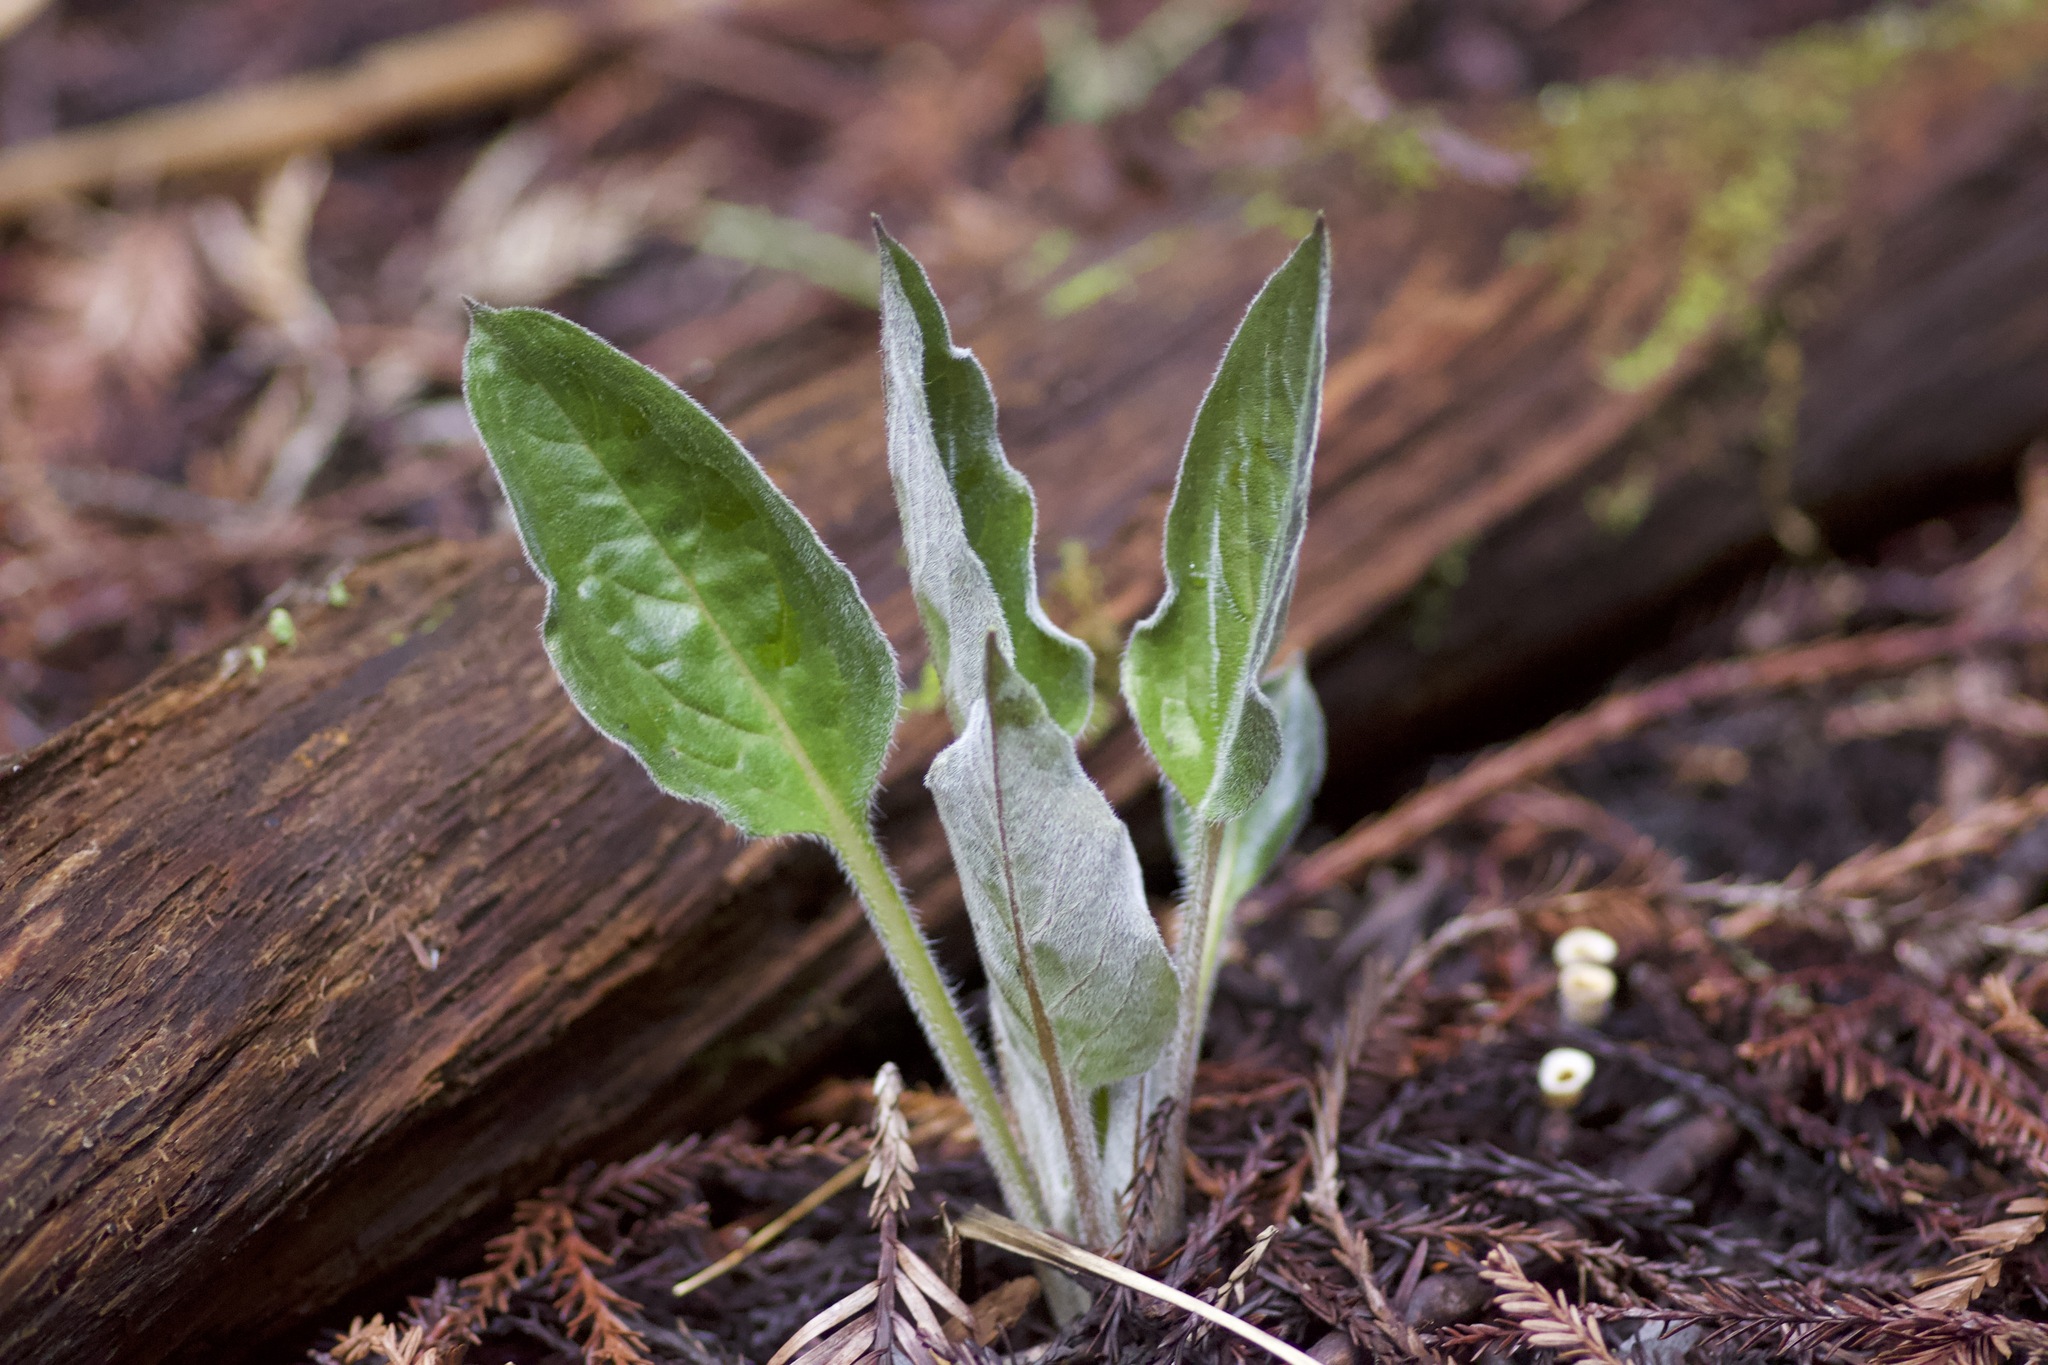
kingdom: Plantae
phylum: Tracheophyta
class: Magnoliopsida
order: Boraginales
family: Boraginaceae
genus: Adelinia
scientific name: Adelinia grande
